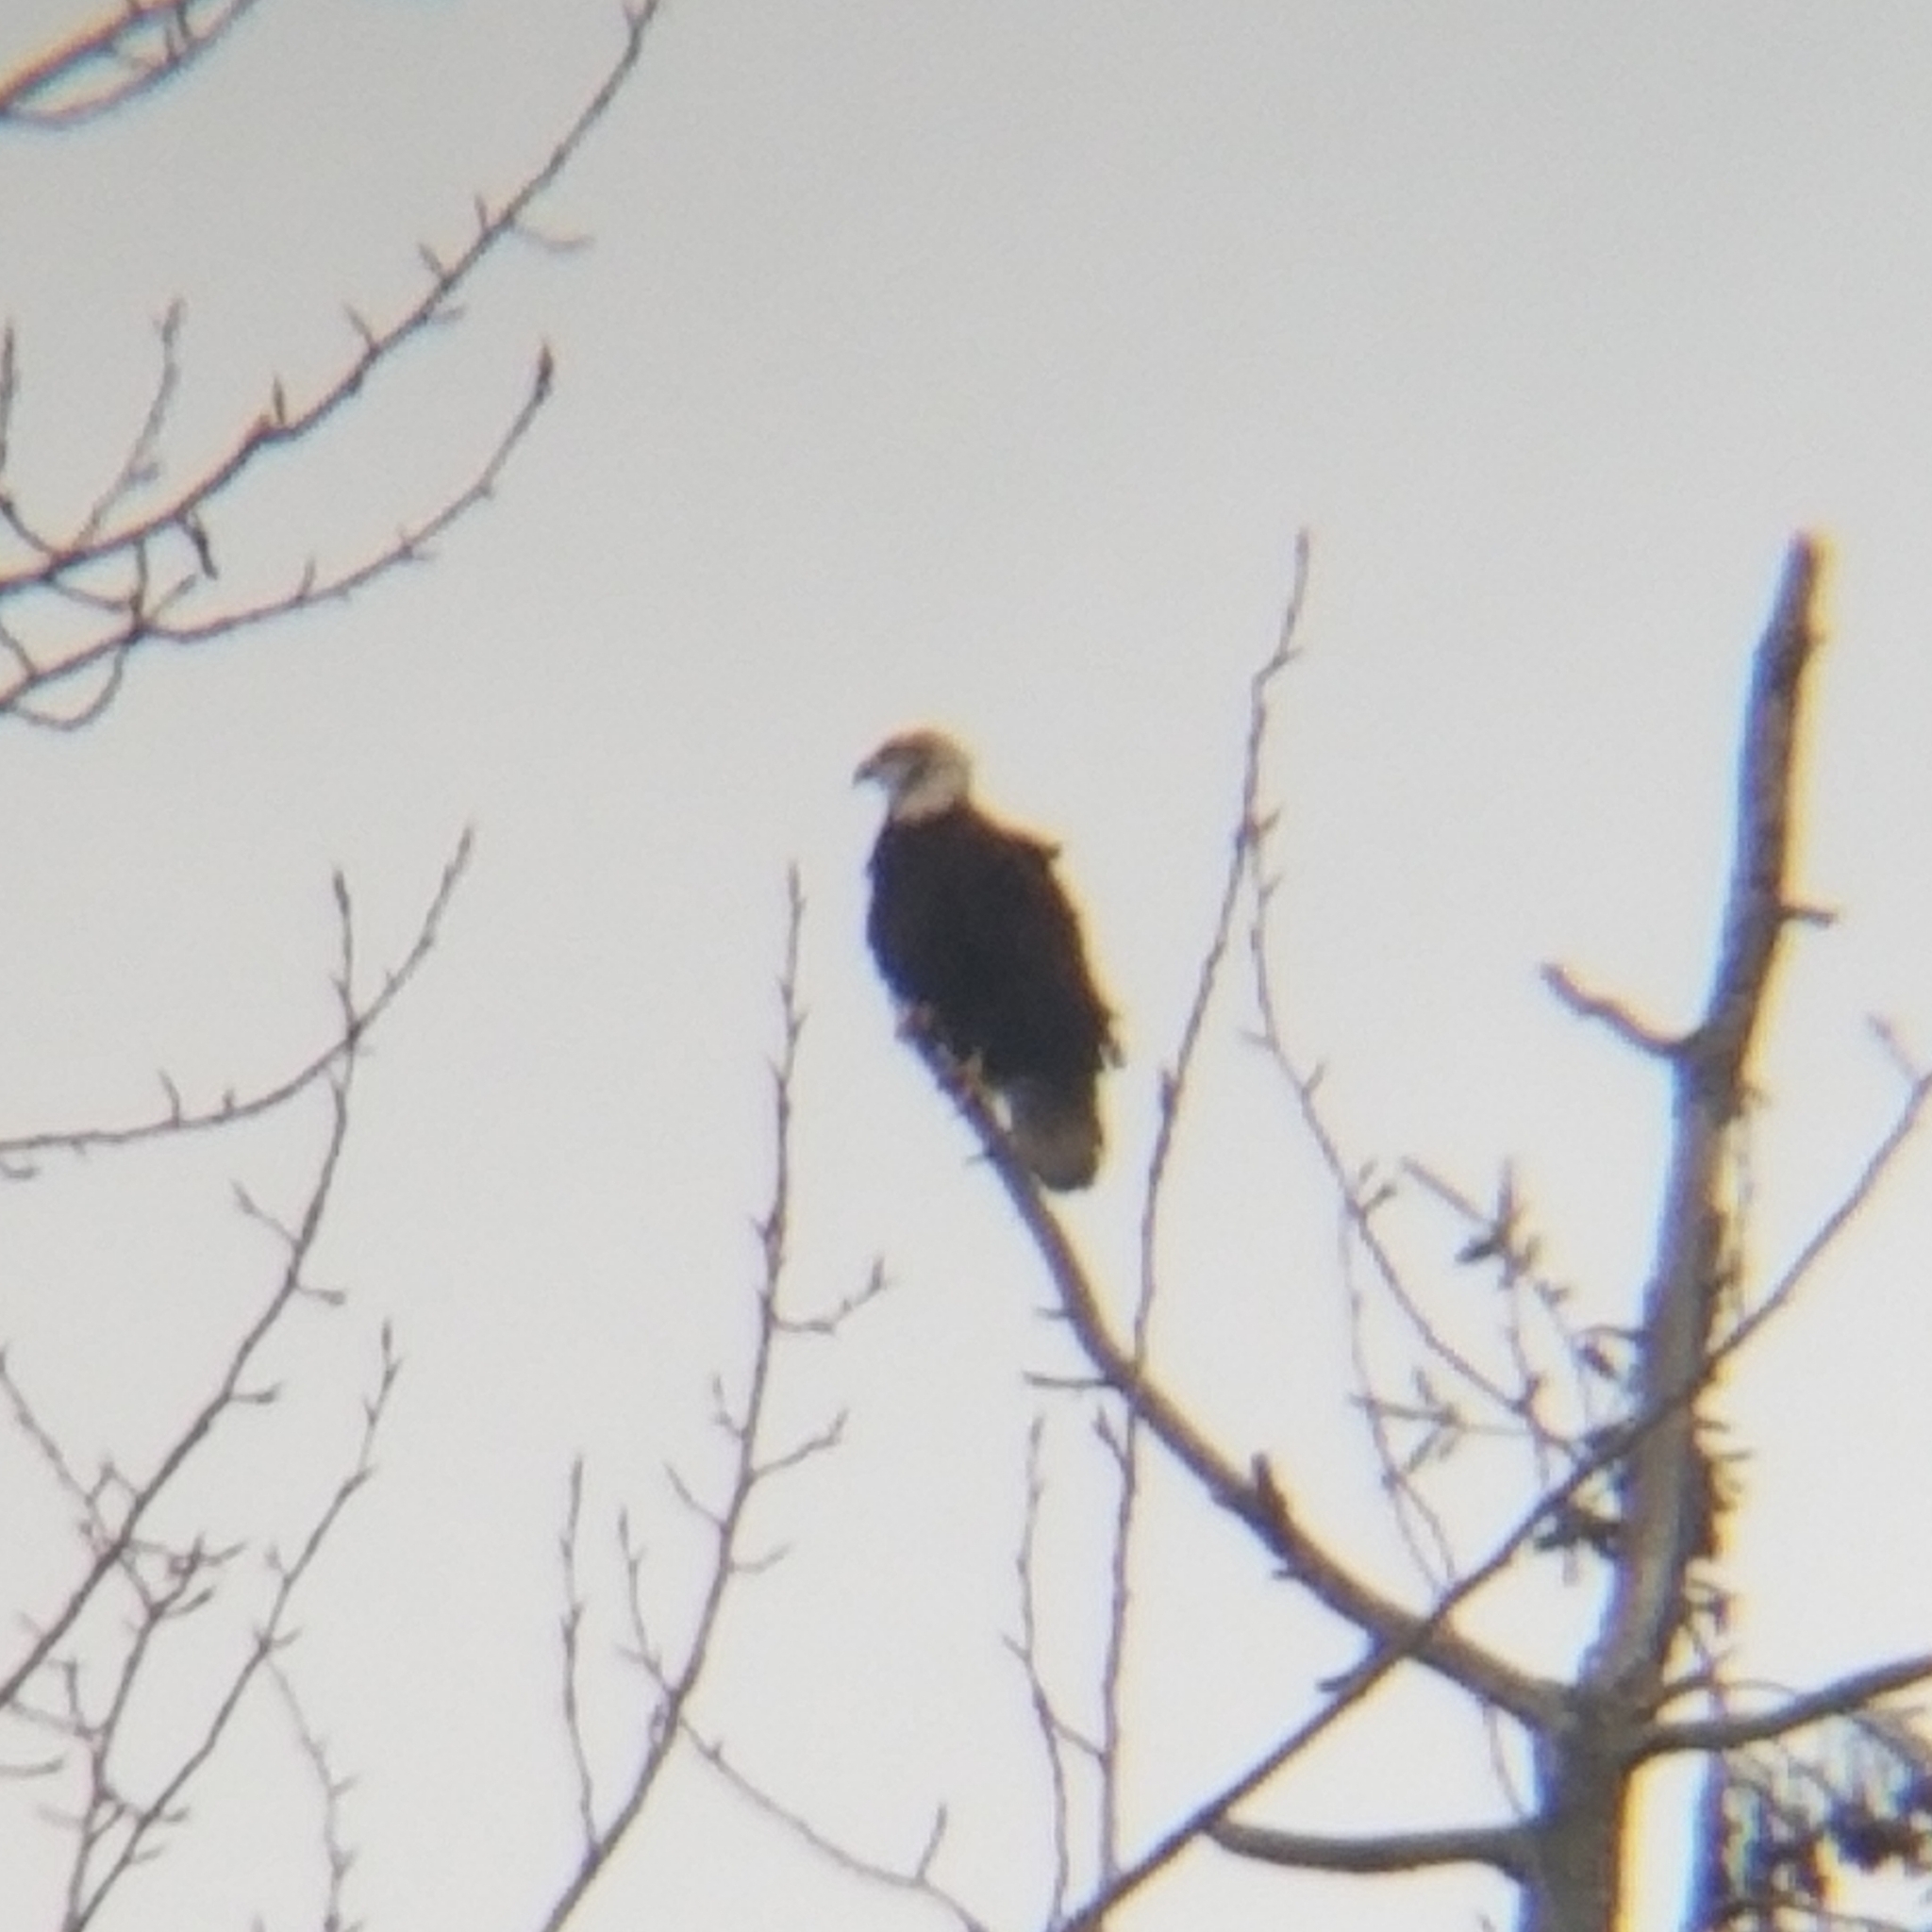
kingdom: Animalia
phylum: Chordata
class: Aves
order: Accipitriformes
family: Accipitridae
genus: Haliaeetus
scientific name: Haliaeetus leucocephalus
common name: Bald eagle
